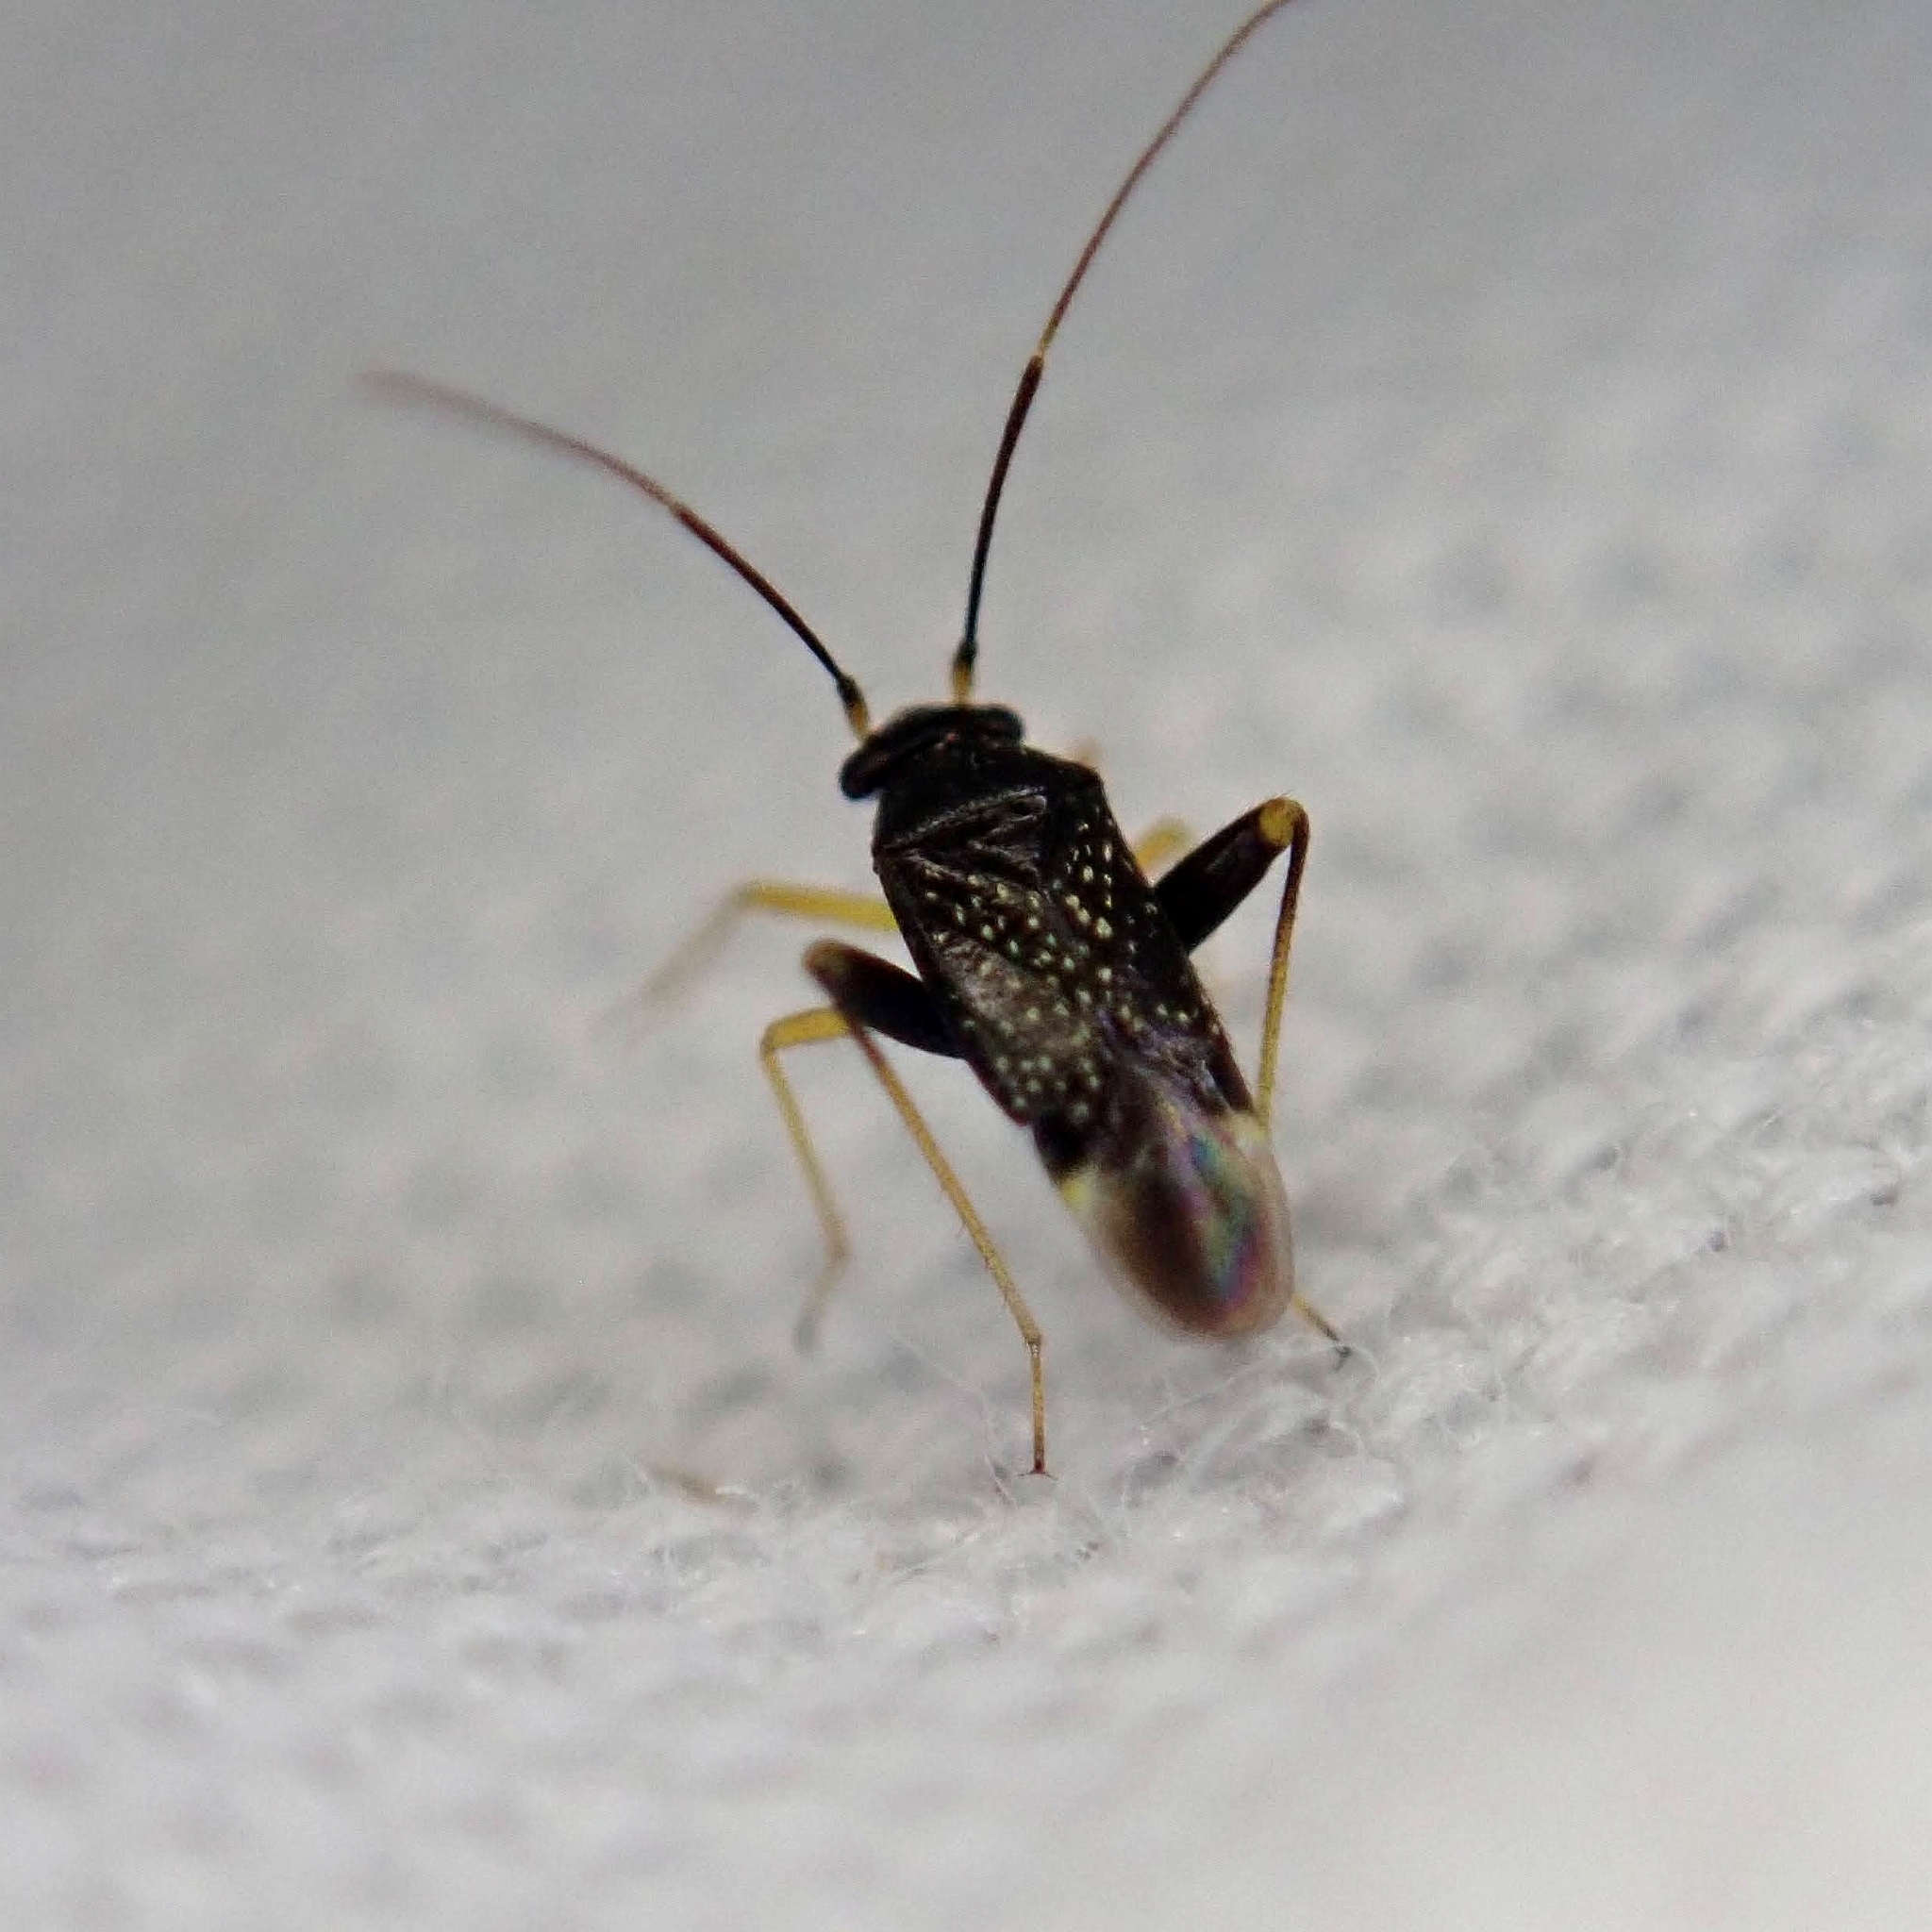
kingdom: Animalia
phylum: Arthropoda
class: Insecta
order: Hemiptera
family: Miridae
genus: Microtechnites
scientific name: Microtechnites bractatus
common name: Garden fleahopper
